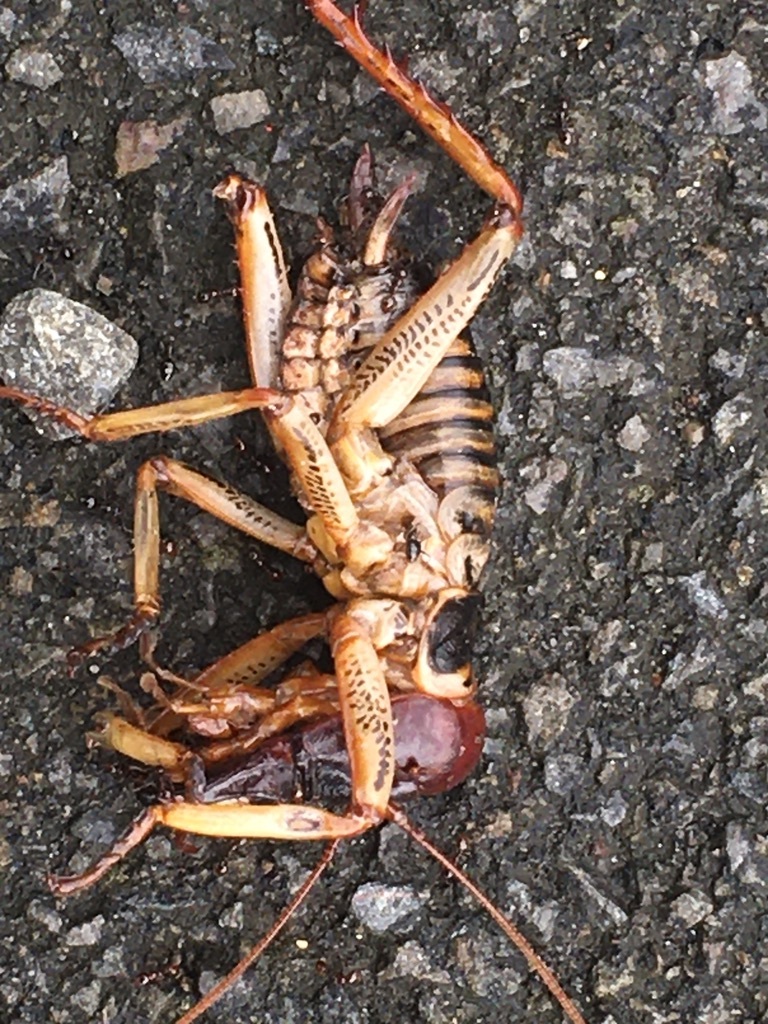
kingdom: Animalia
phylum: Arthropoda
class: Insecta
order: Orthoptera
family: Anostostomatidae
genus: Hemideina
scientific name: Hemideina crassidens
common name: Wellington tree weta
